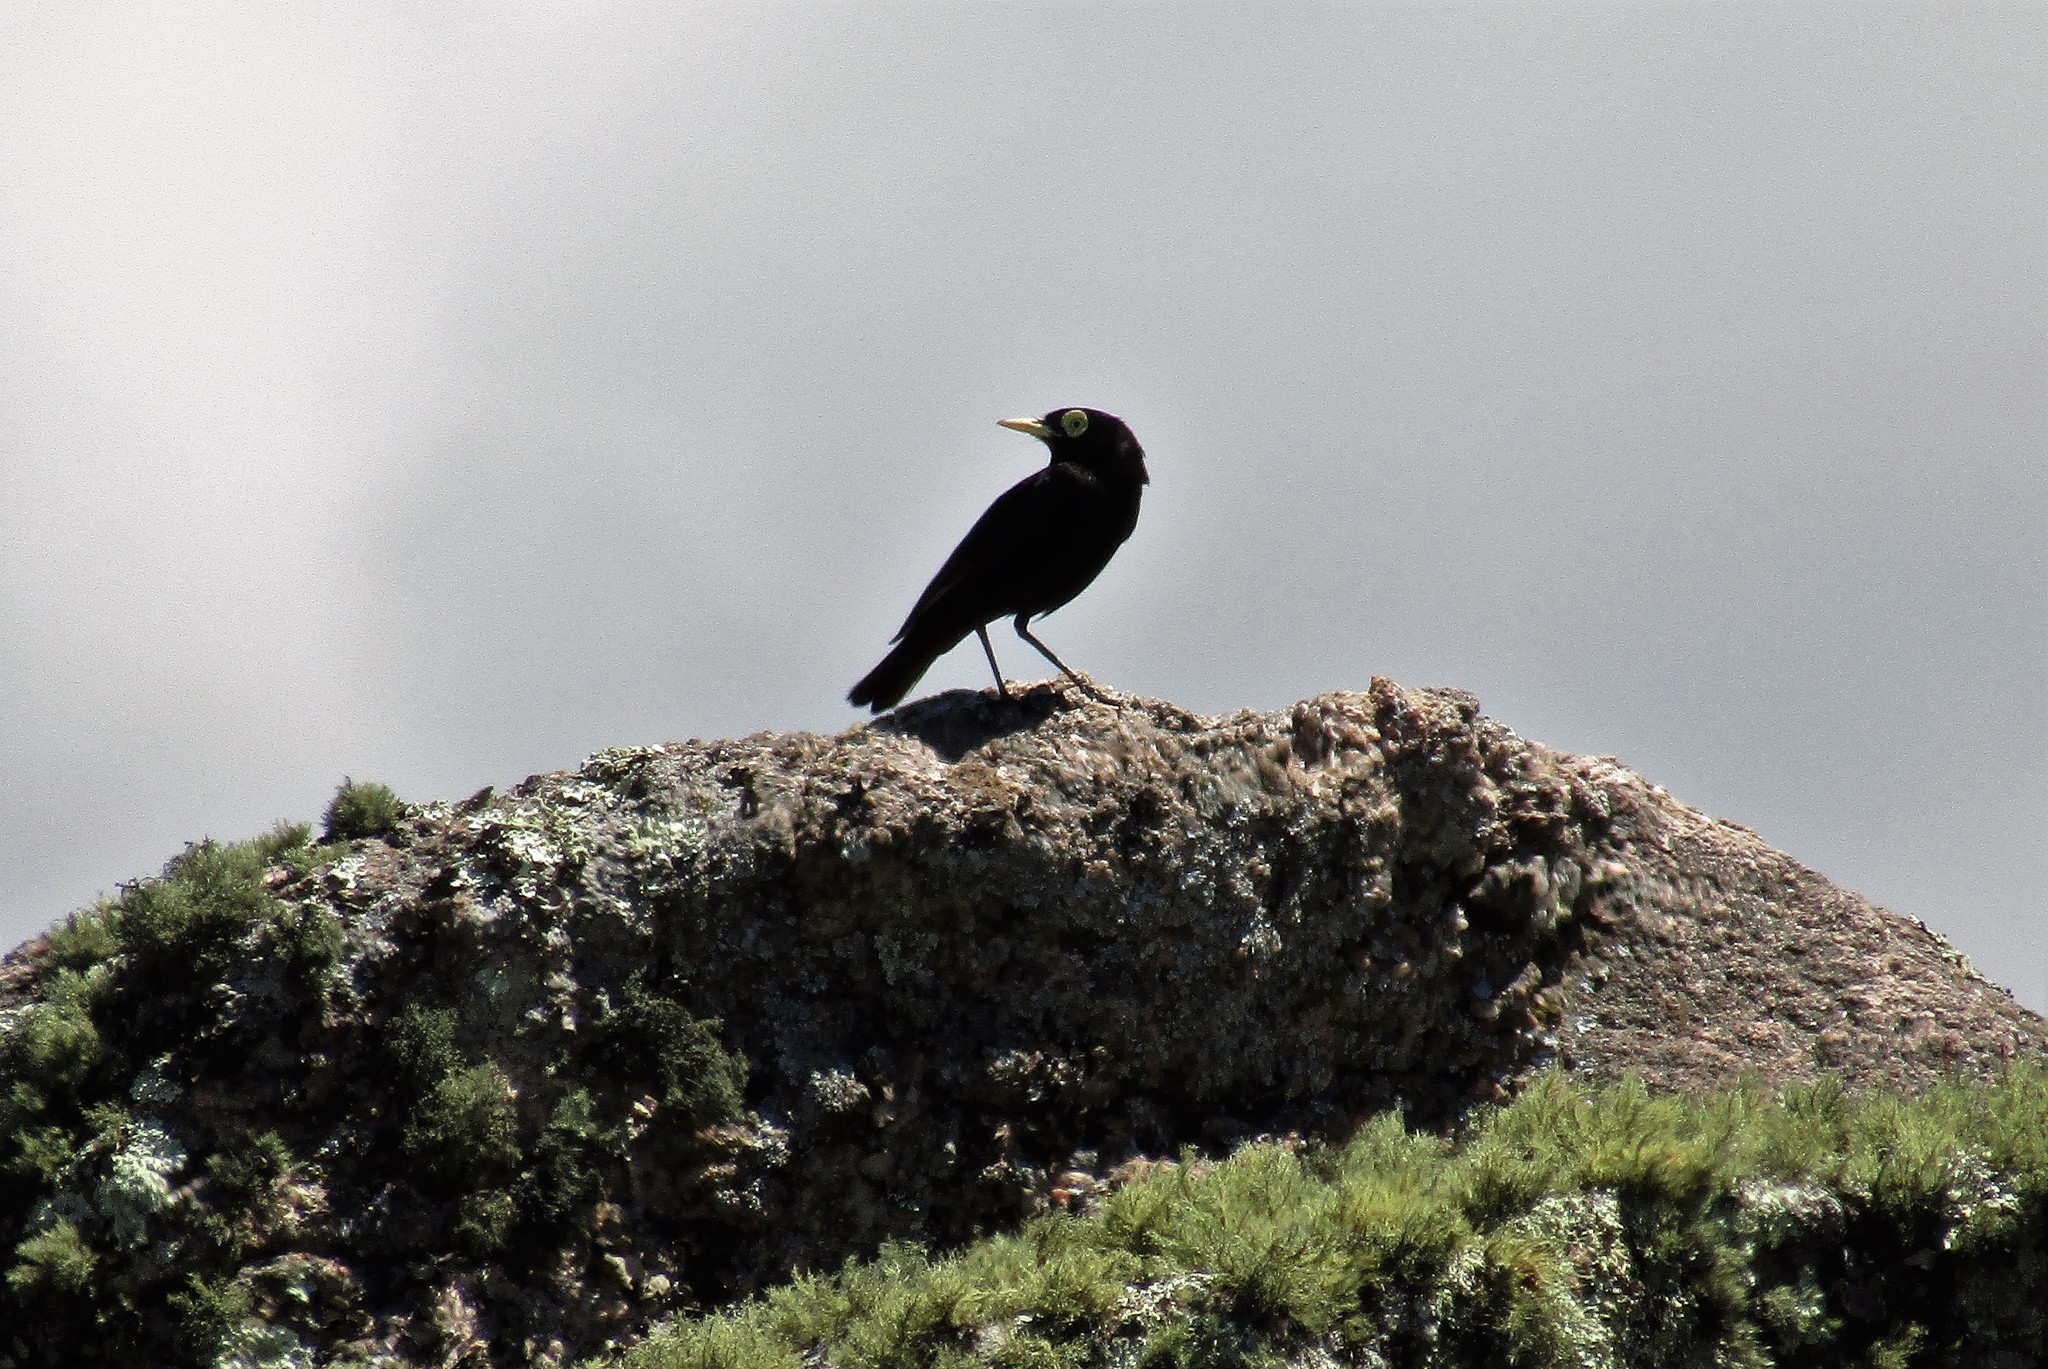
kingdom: Animalia
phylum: Chordata
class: Aves
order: Passeriformes
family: Tyrannidae
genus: Hymenops
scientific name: Hymenops perspicillatus
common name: Spectacled tyrant
